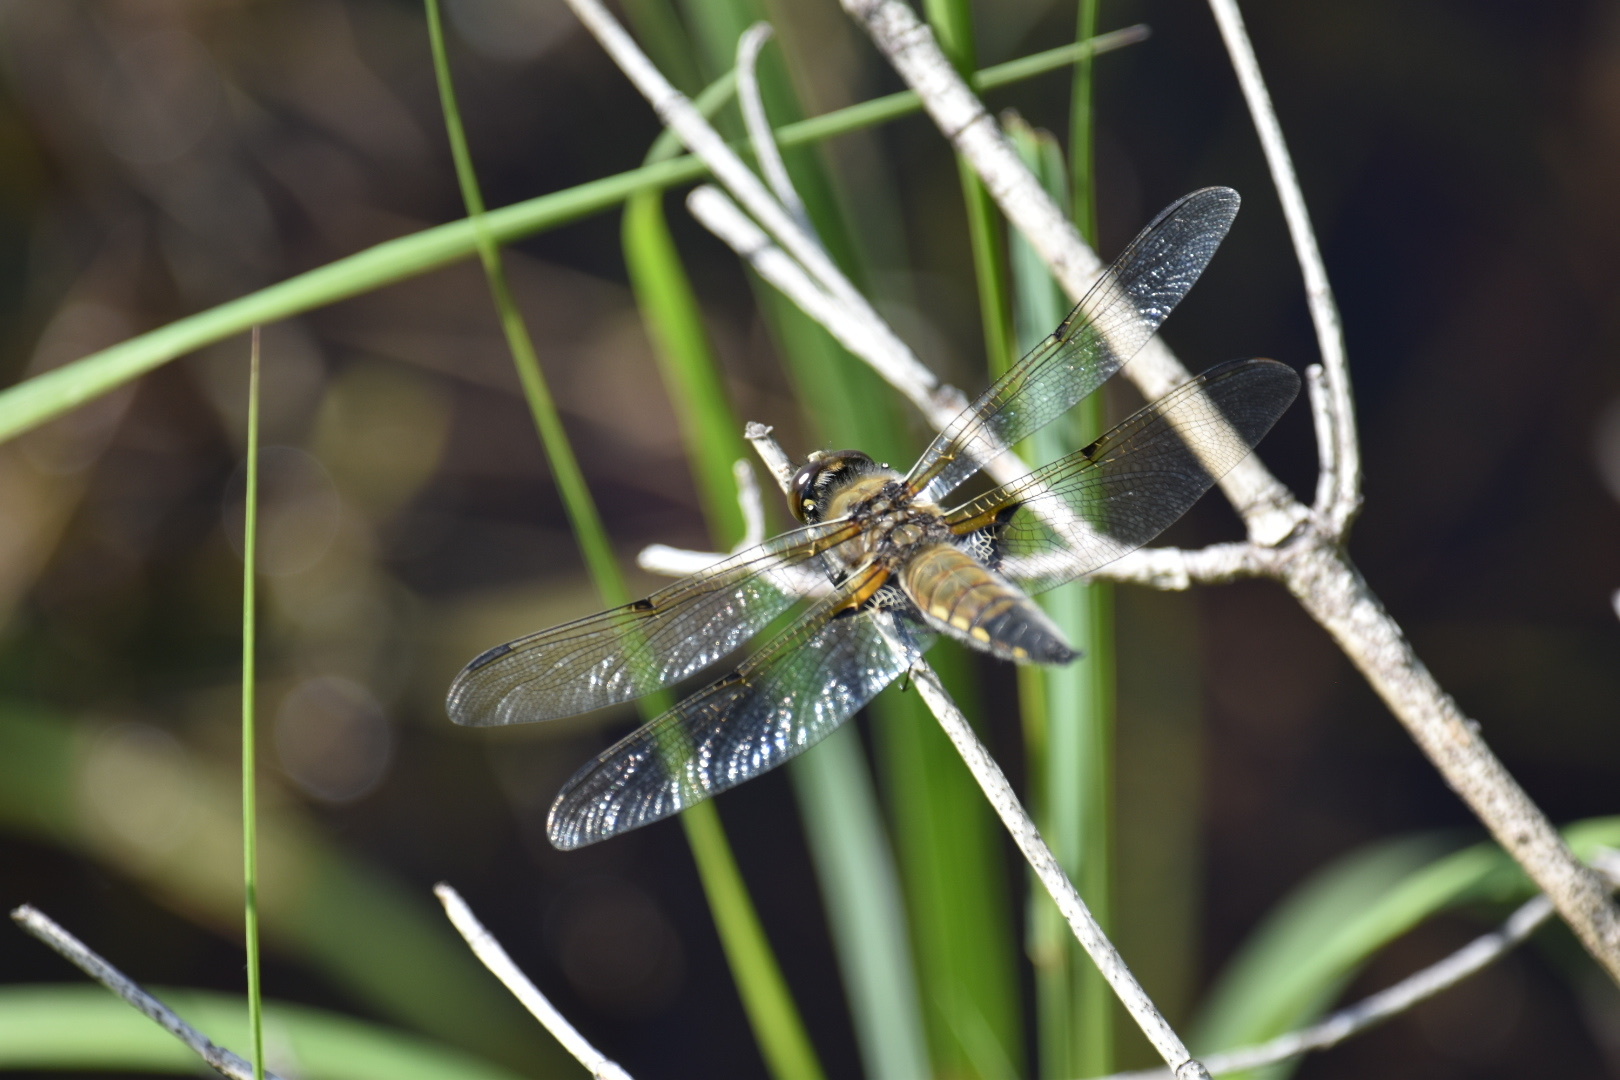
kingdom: Animalia
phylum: Arthropoda
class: Insecta
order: Odonata
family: Libellulidae
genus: Libellula
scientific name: Libellula quadrimaculata
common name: Four-spotted chaser
